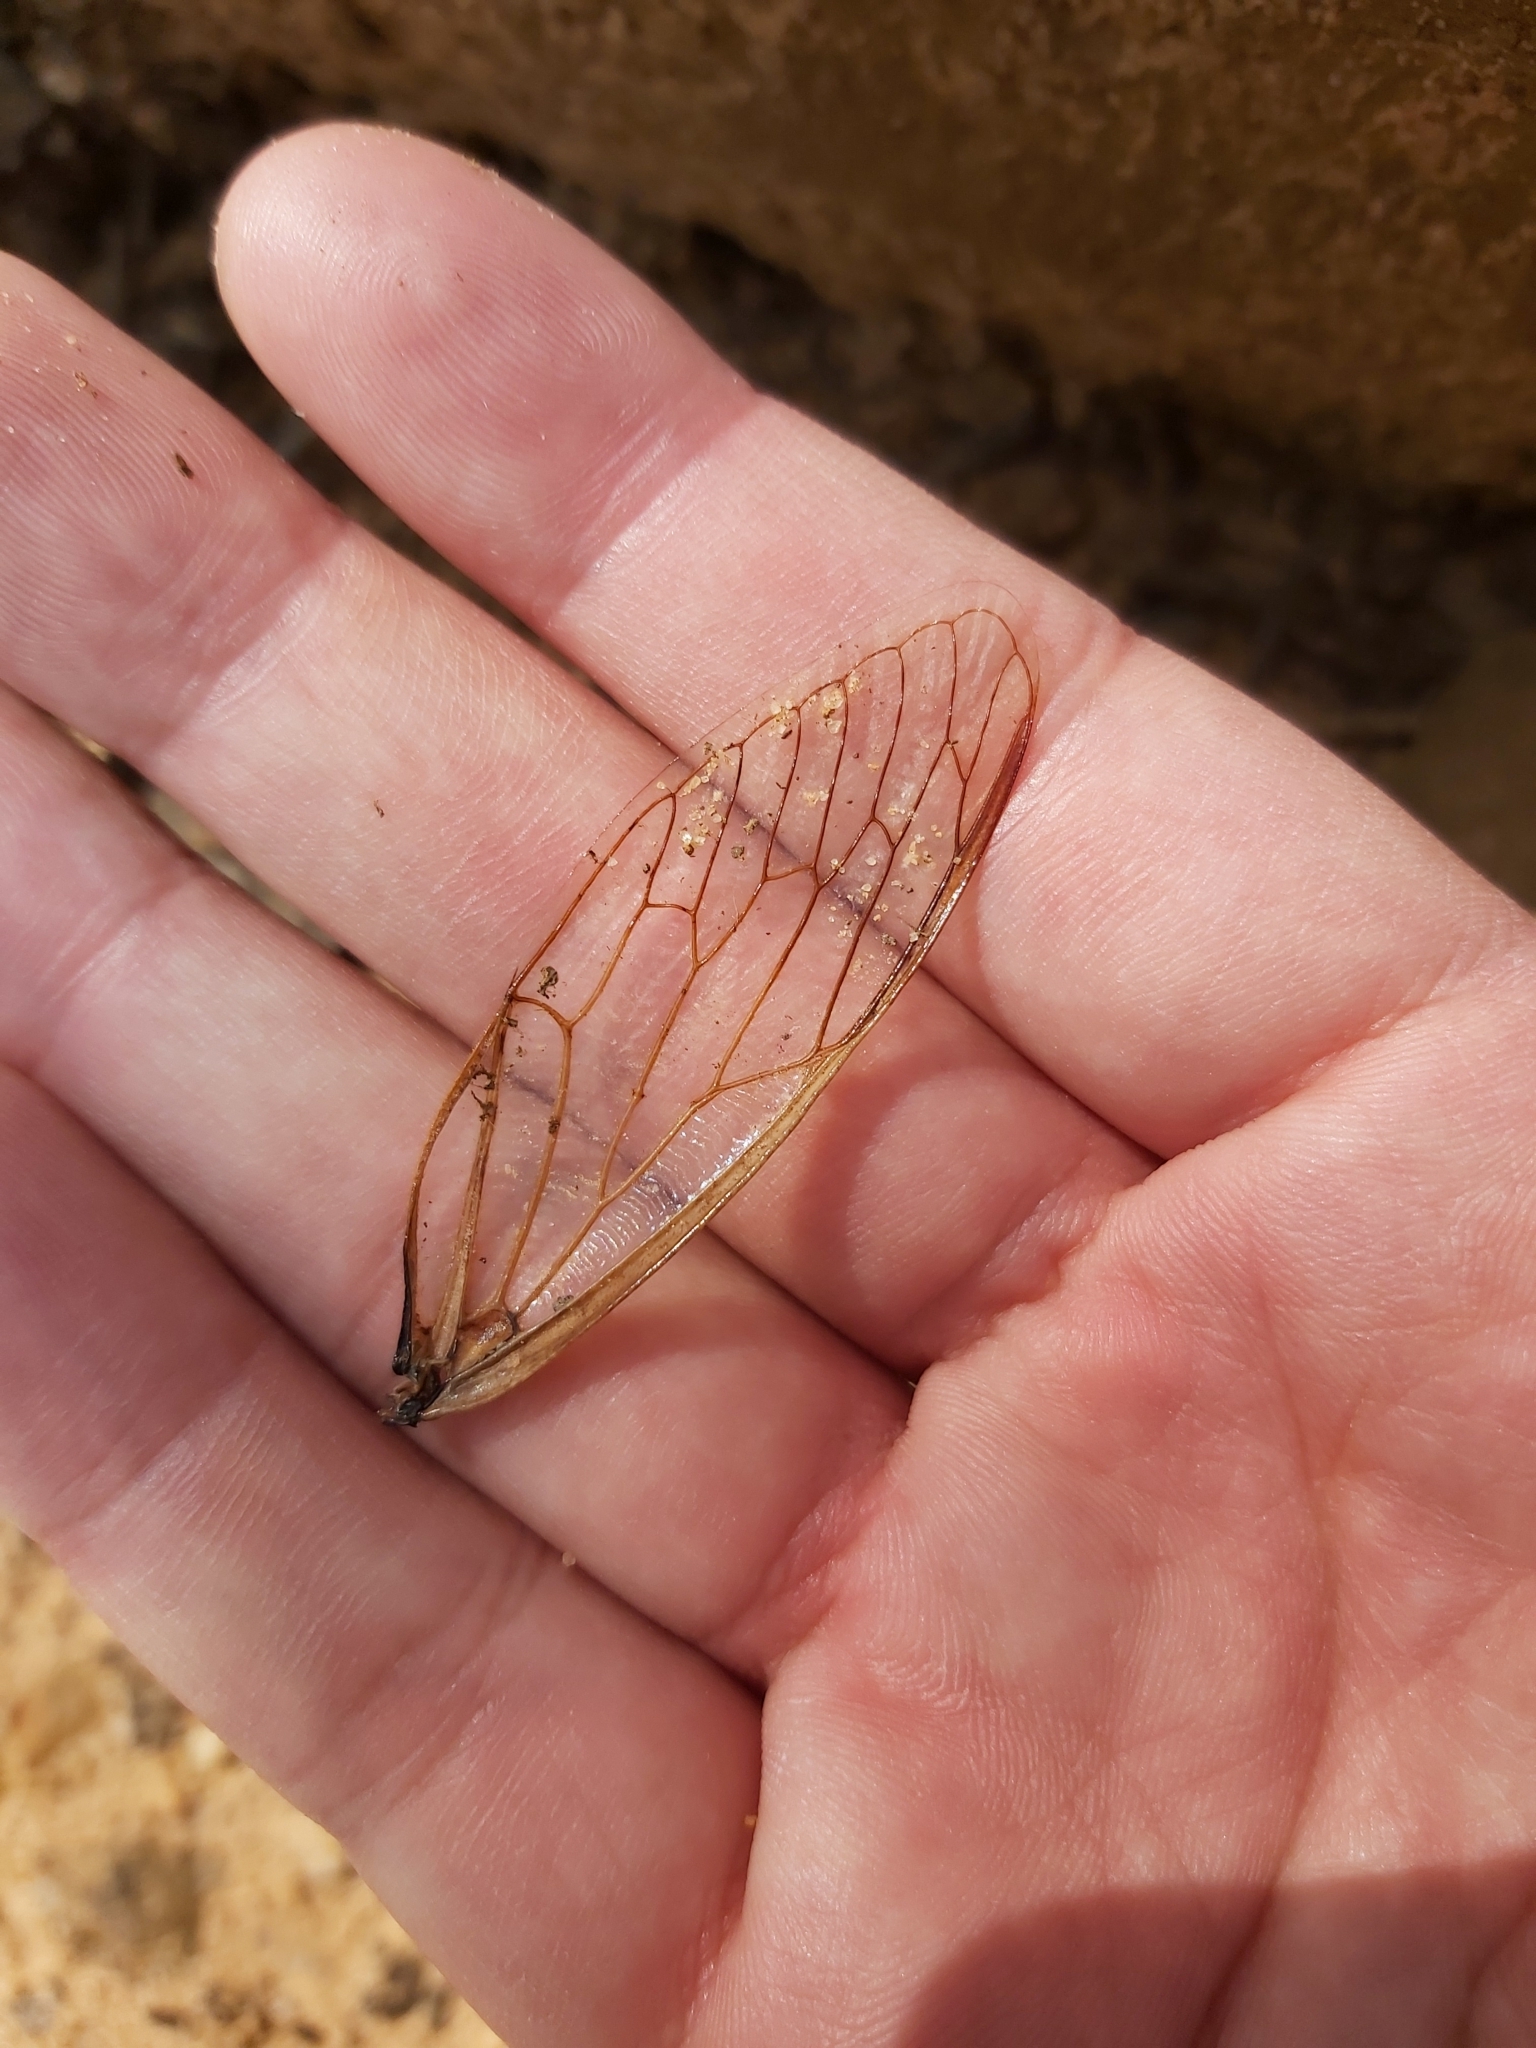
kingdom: Animalia
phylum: Arthropoda
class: Insecta
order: Hemiptera
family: Cicadidae
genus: Cyclochila
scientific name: Cyclochila australasiae
